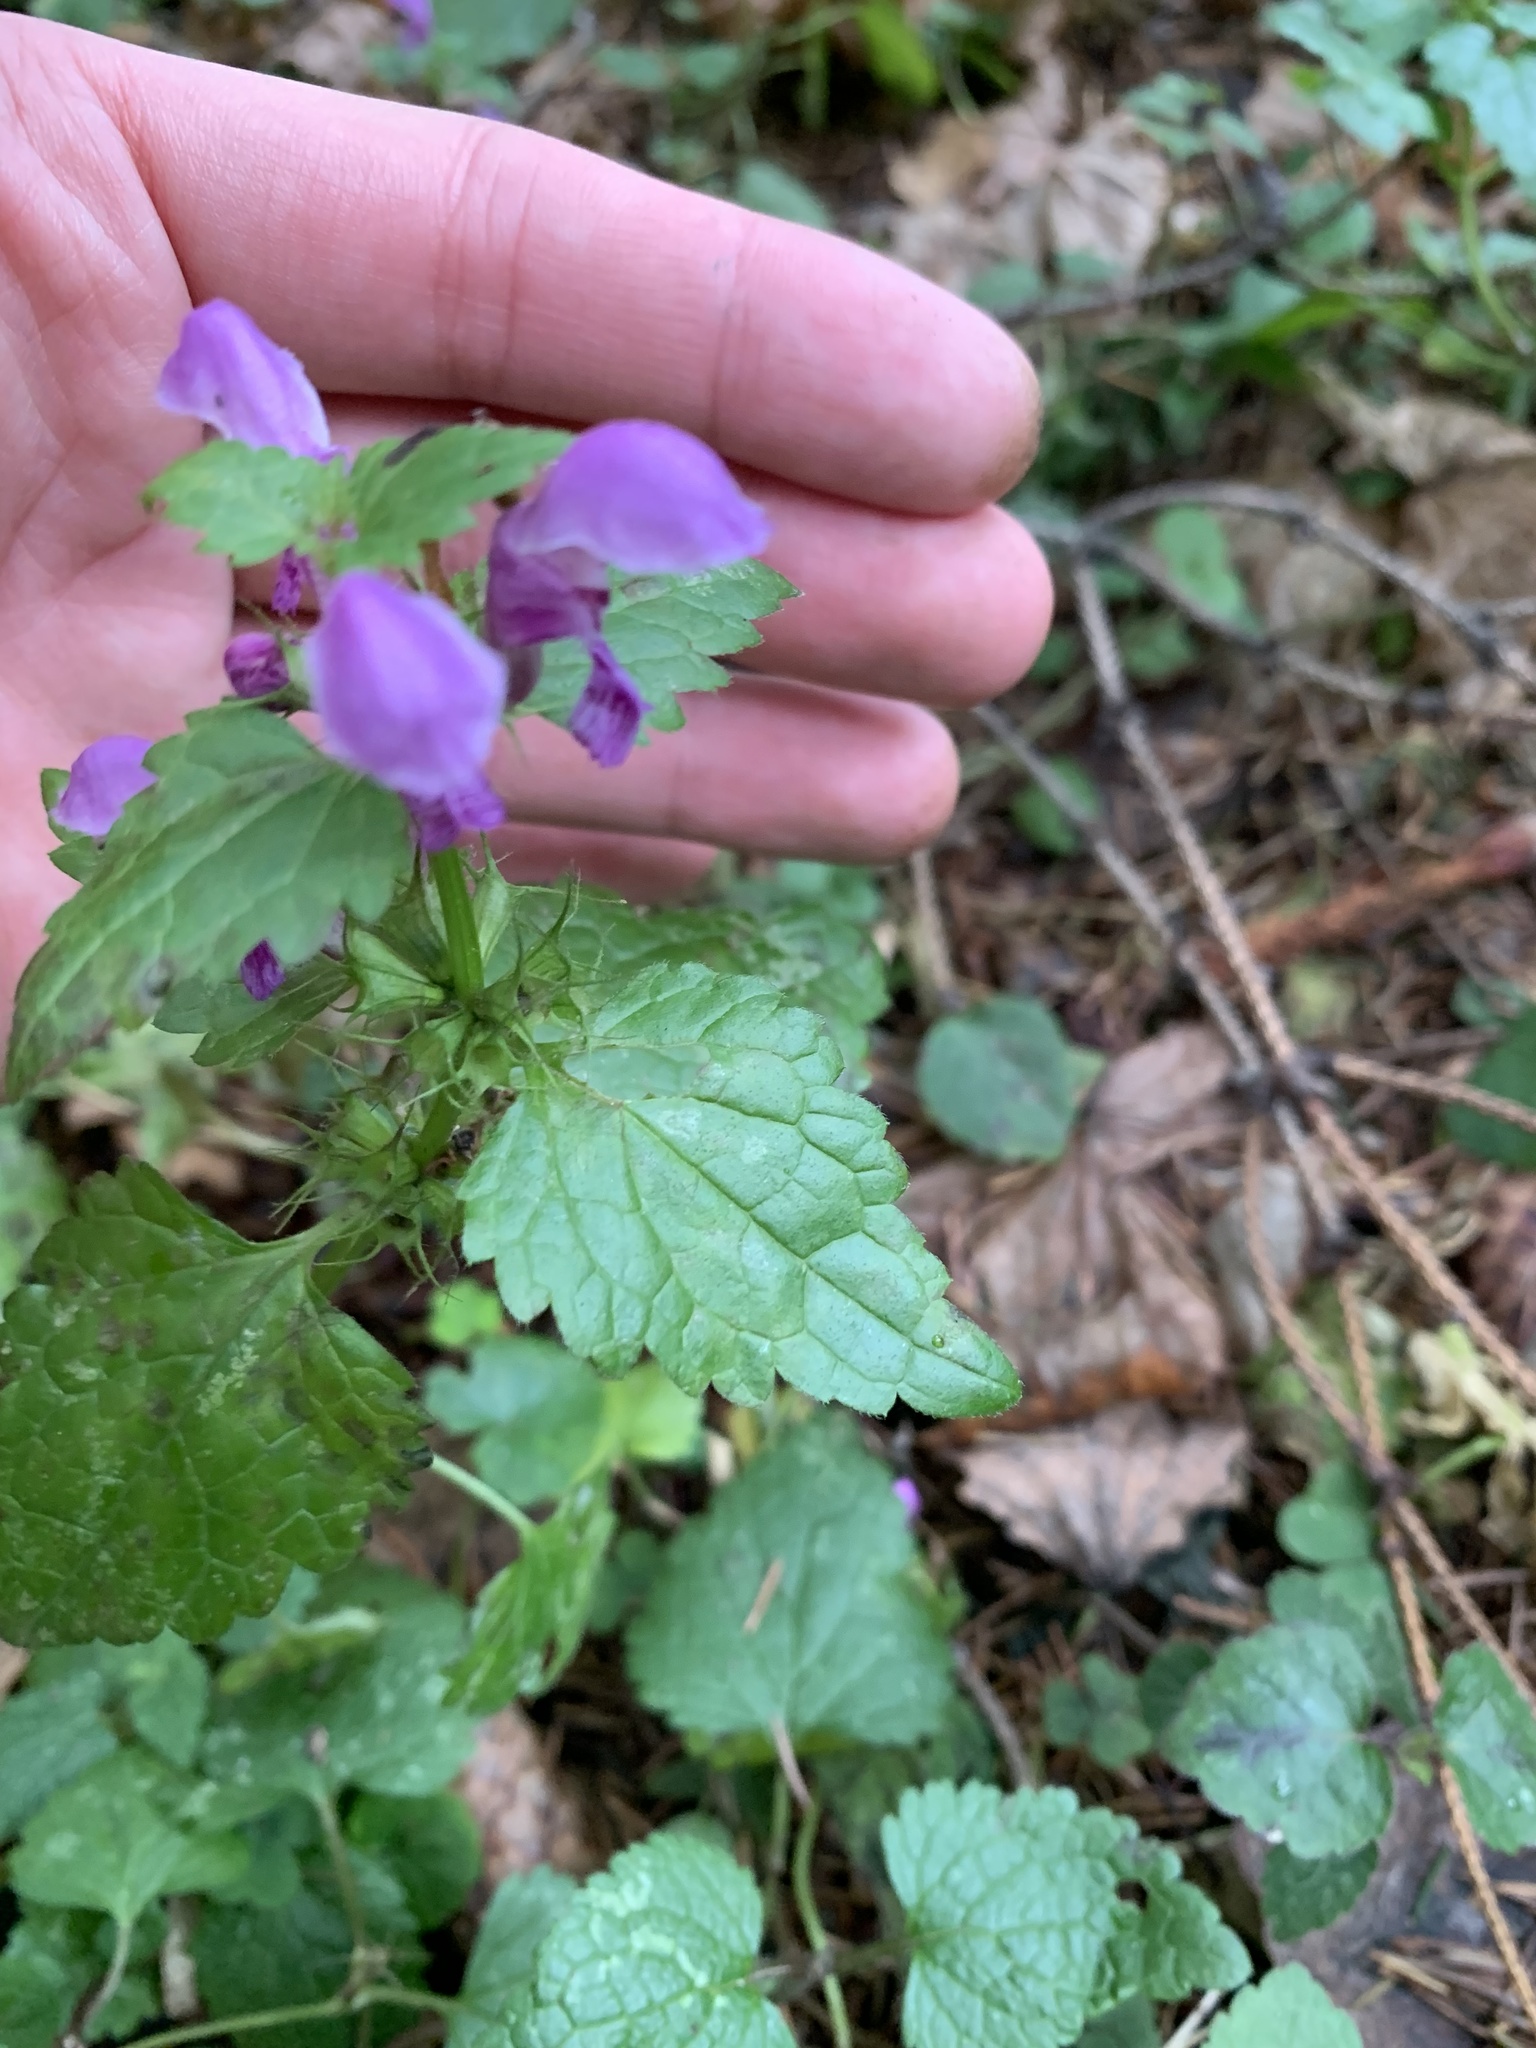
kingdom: Plantae
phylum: Tracheophyta
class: Magnoliopsida
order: Lamiales
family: Lamiaceae
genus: Lamium
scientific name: Lamium maculatum
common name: Spotted dead-nettle
